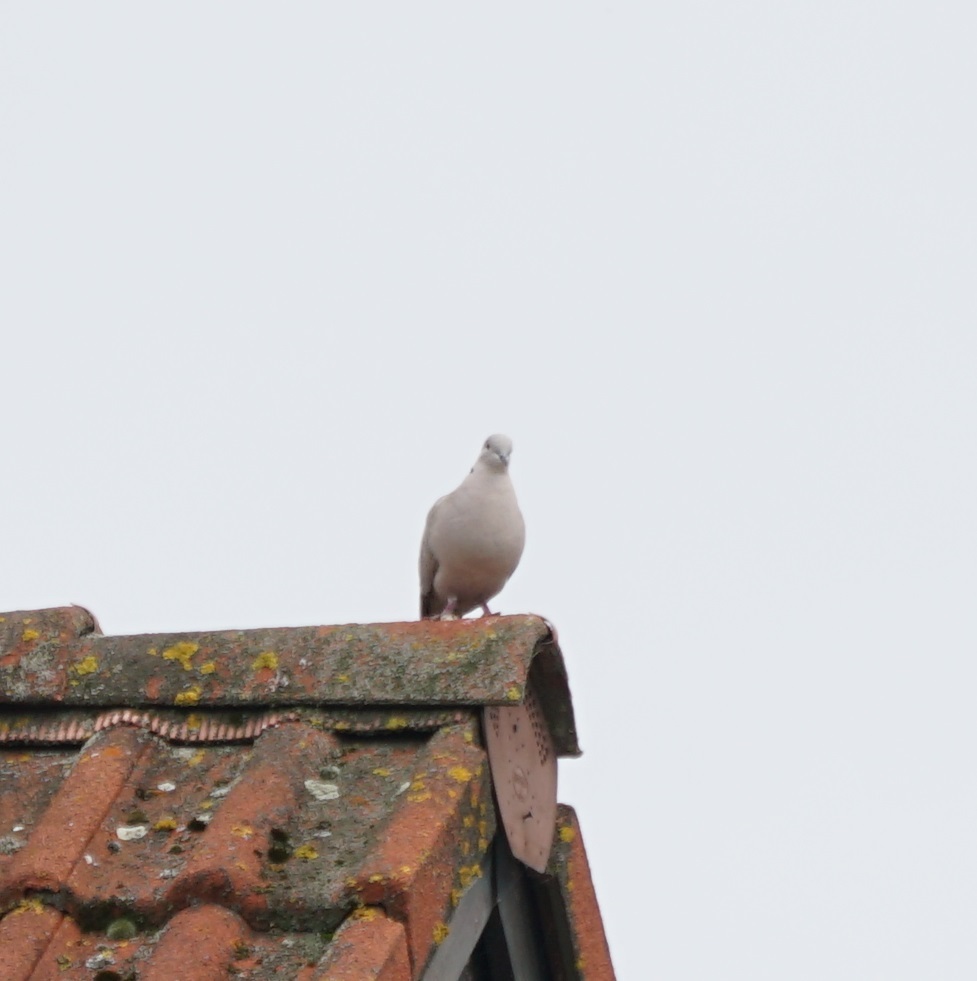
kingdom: Animalia
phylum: Chordata
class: Aves
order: Columbiformes
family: Columbidae
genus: Streptopelia
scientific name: Streptopelia decaocto
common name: Eurasian collared dove
